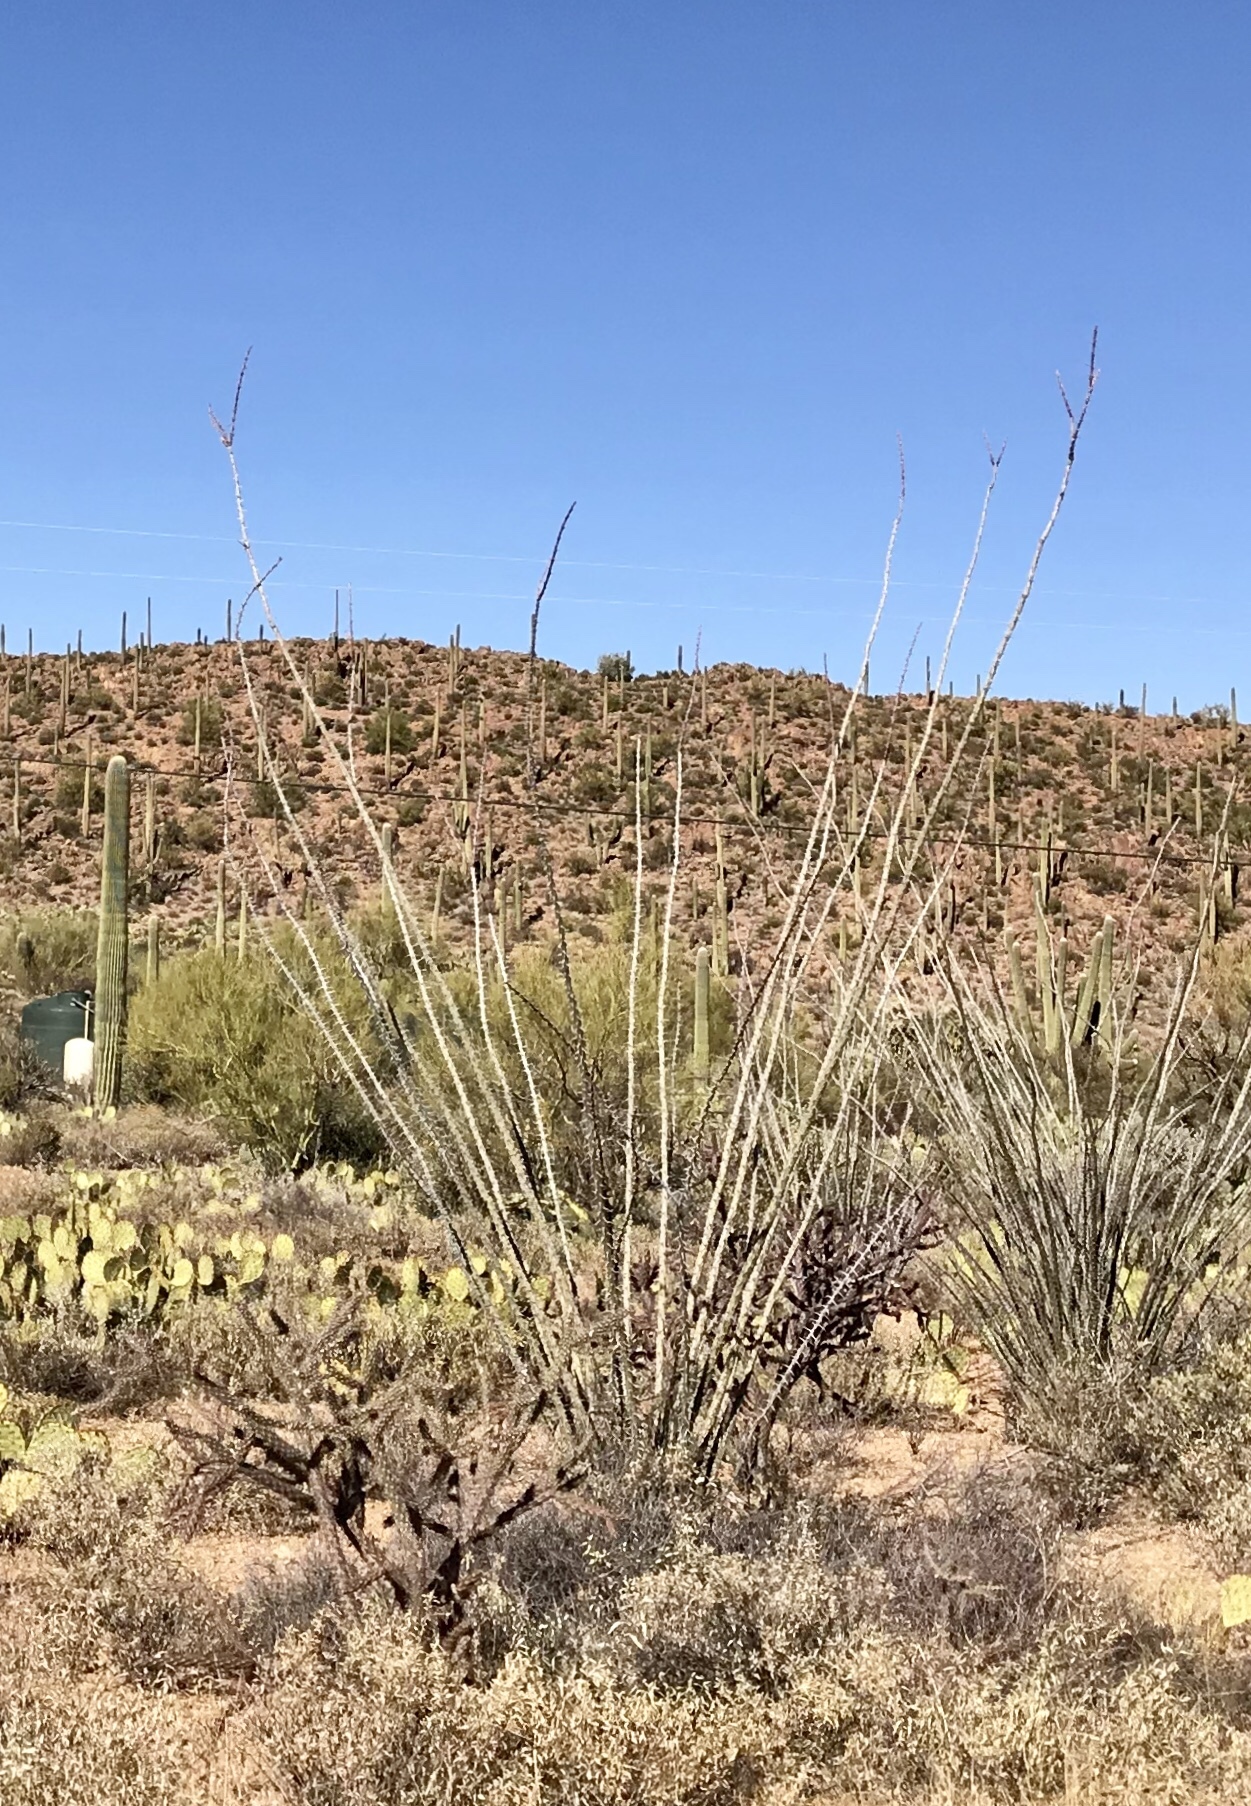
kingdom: Plantae
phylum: Tracheophyta
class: Magnoliopsida
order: Ericales
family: Fouquieriaceae
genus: Fouquieria
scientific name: Fouquieria splendens
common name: Vine-cactus
